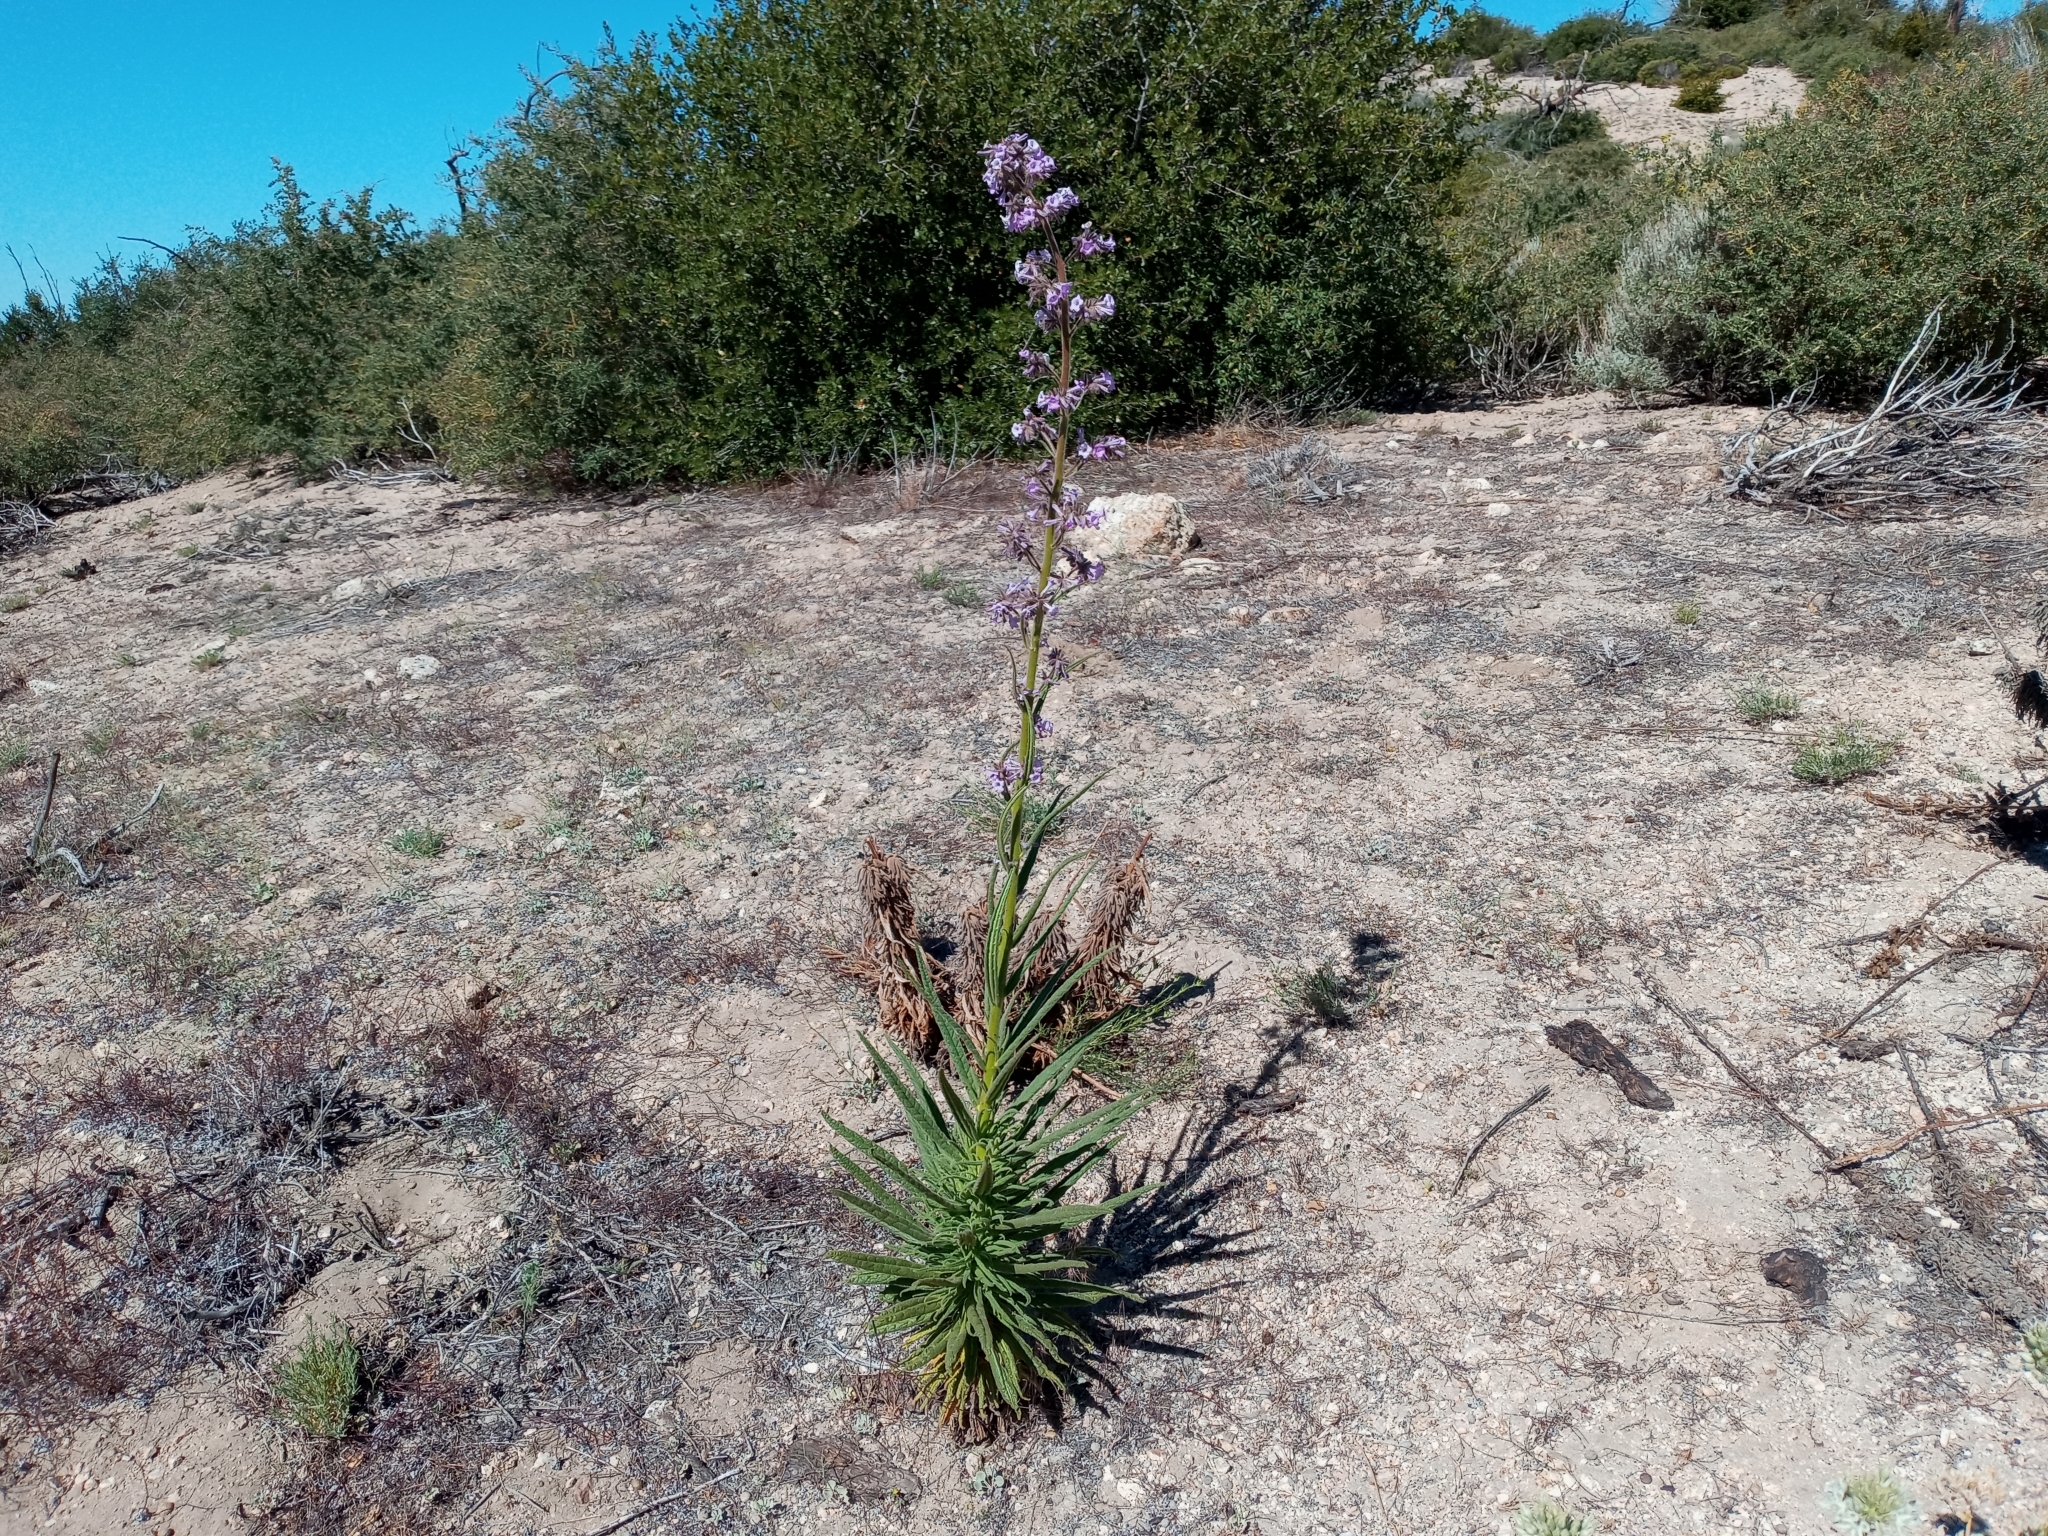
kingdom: Plantae
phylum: Tracheophyta
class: Magnoliopsida
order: Boraginales
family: Namaceae
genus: Turricula
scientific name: Turricula parryi
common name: Poodle-dog-bush
